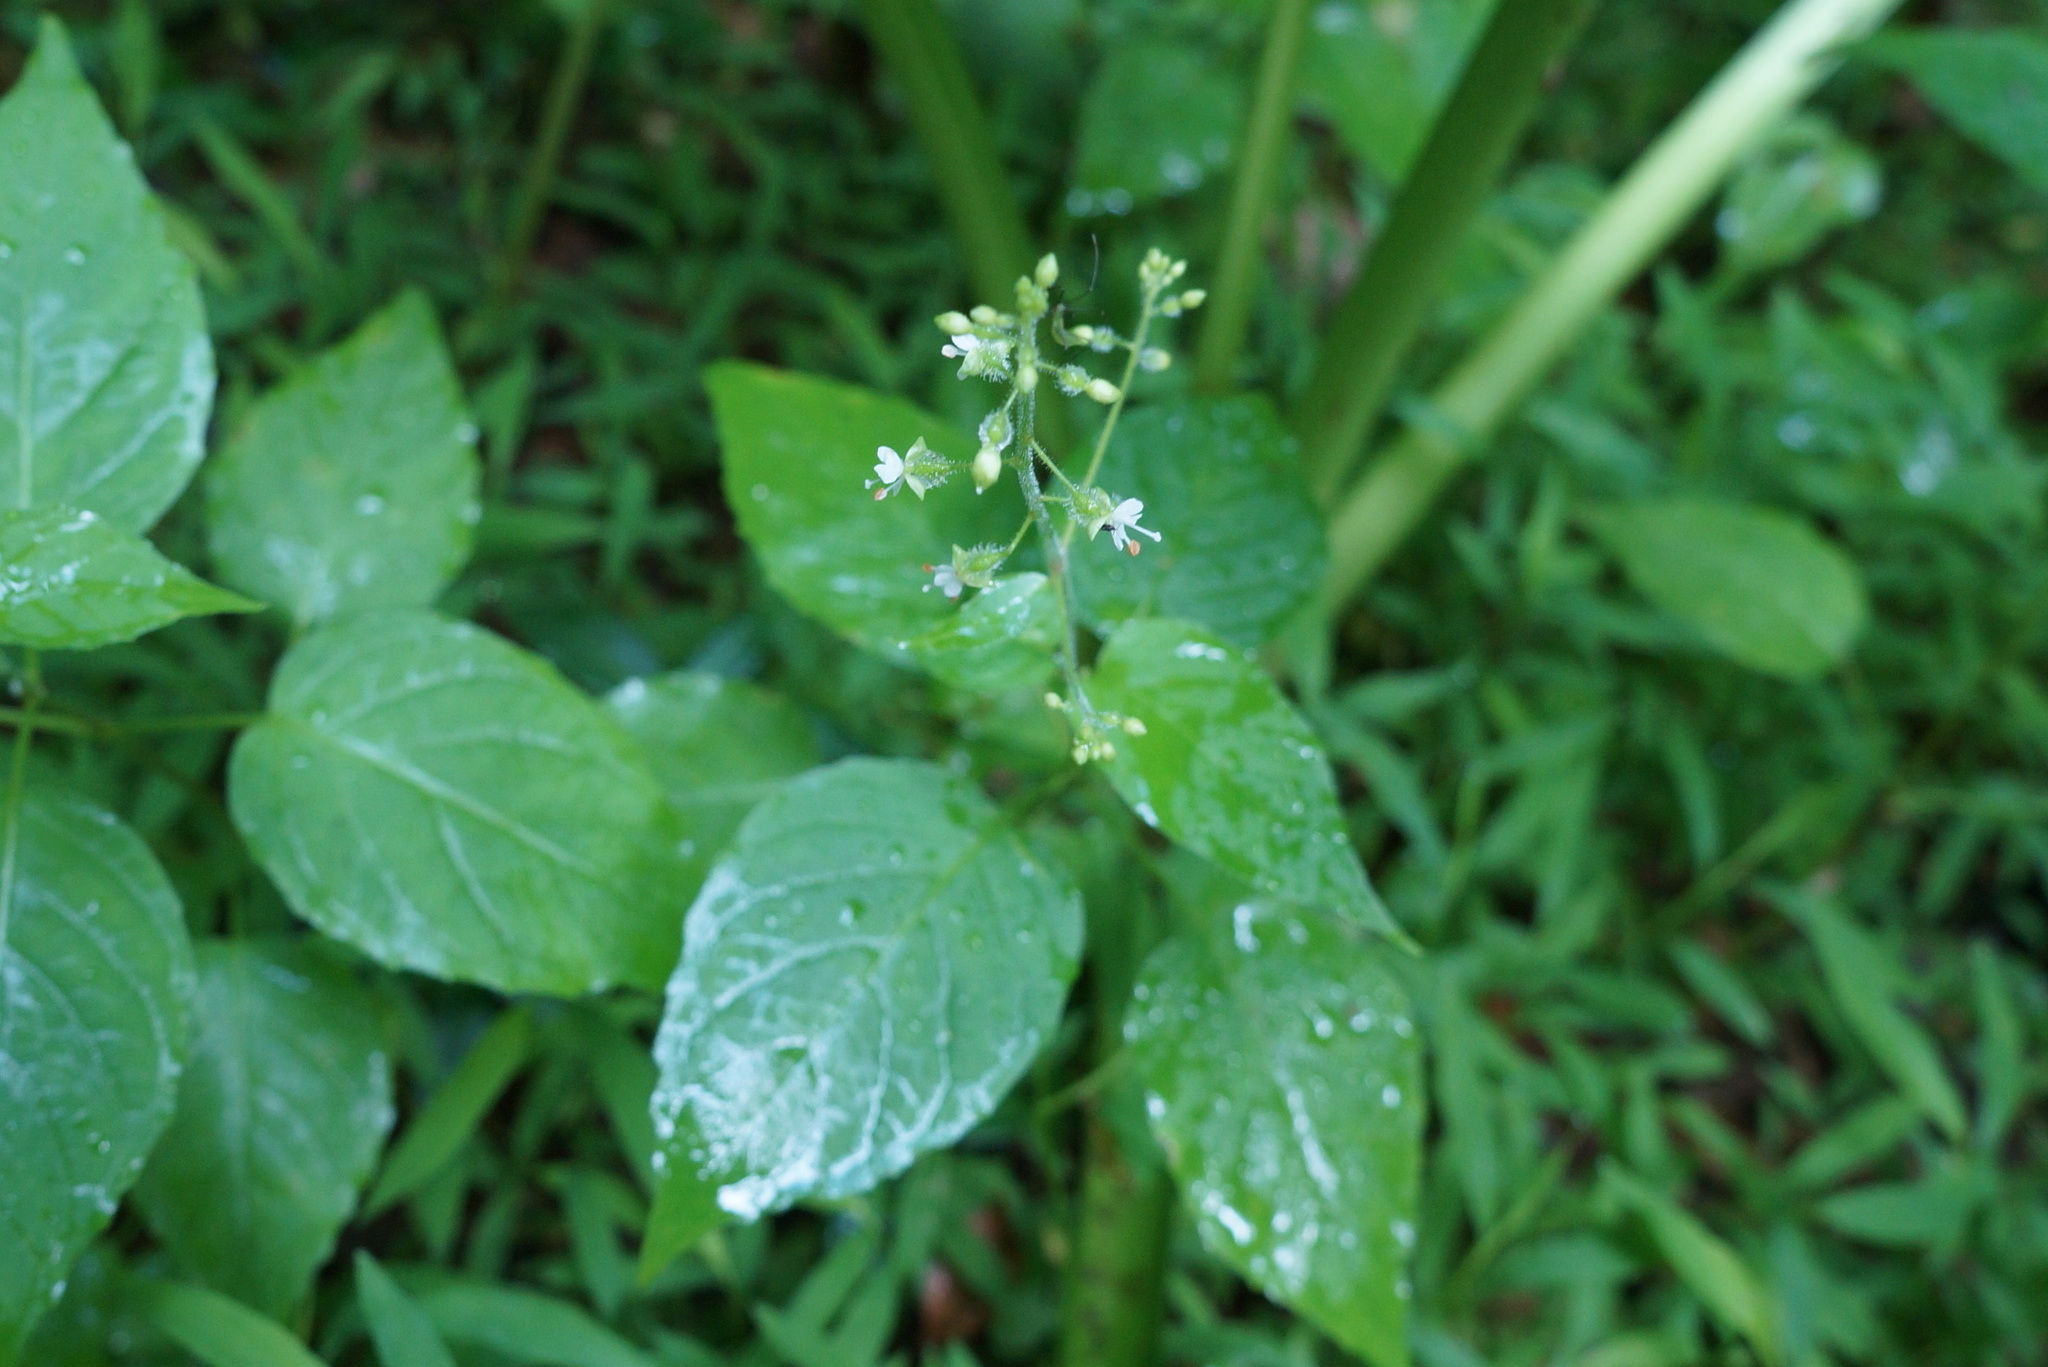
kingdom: Plantae
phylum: Tracheophyta
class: Magnoliopsida
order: Myrtales
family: Onagraceae
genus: Circaea
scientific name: Circaea canadensis
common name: Broad-leaved enchanter's nightshade
